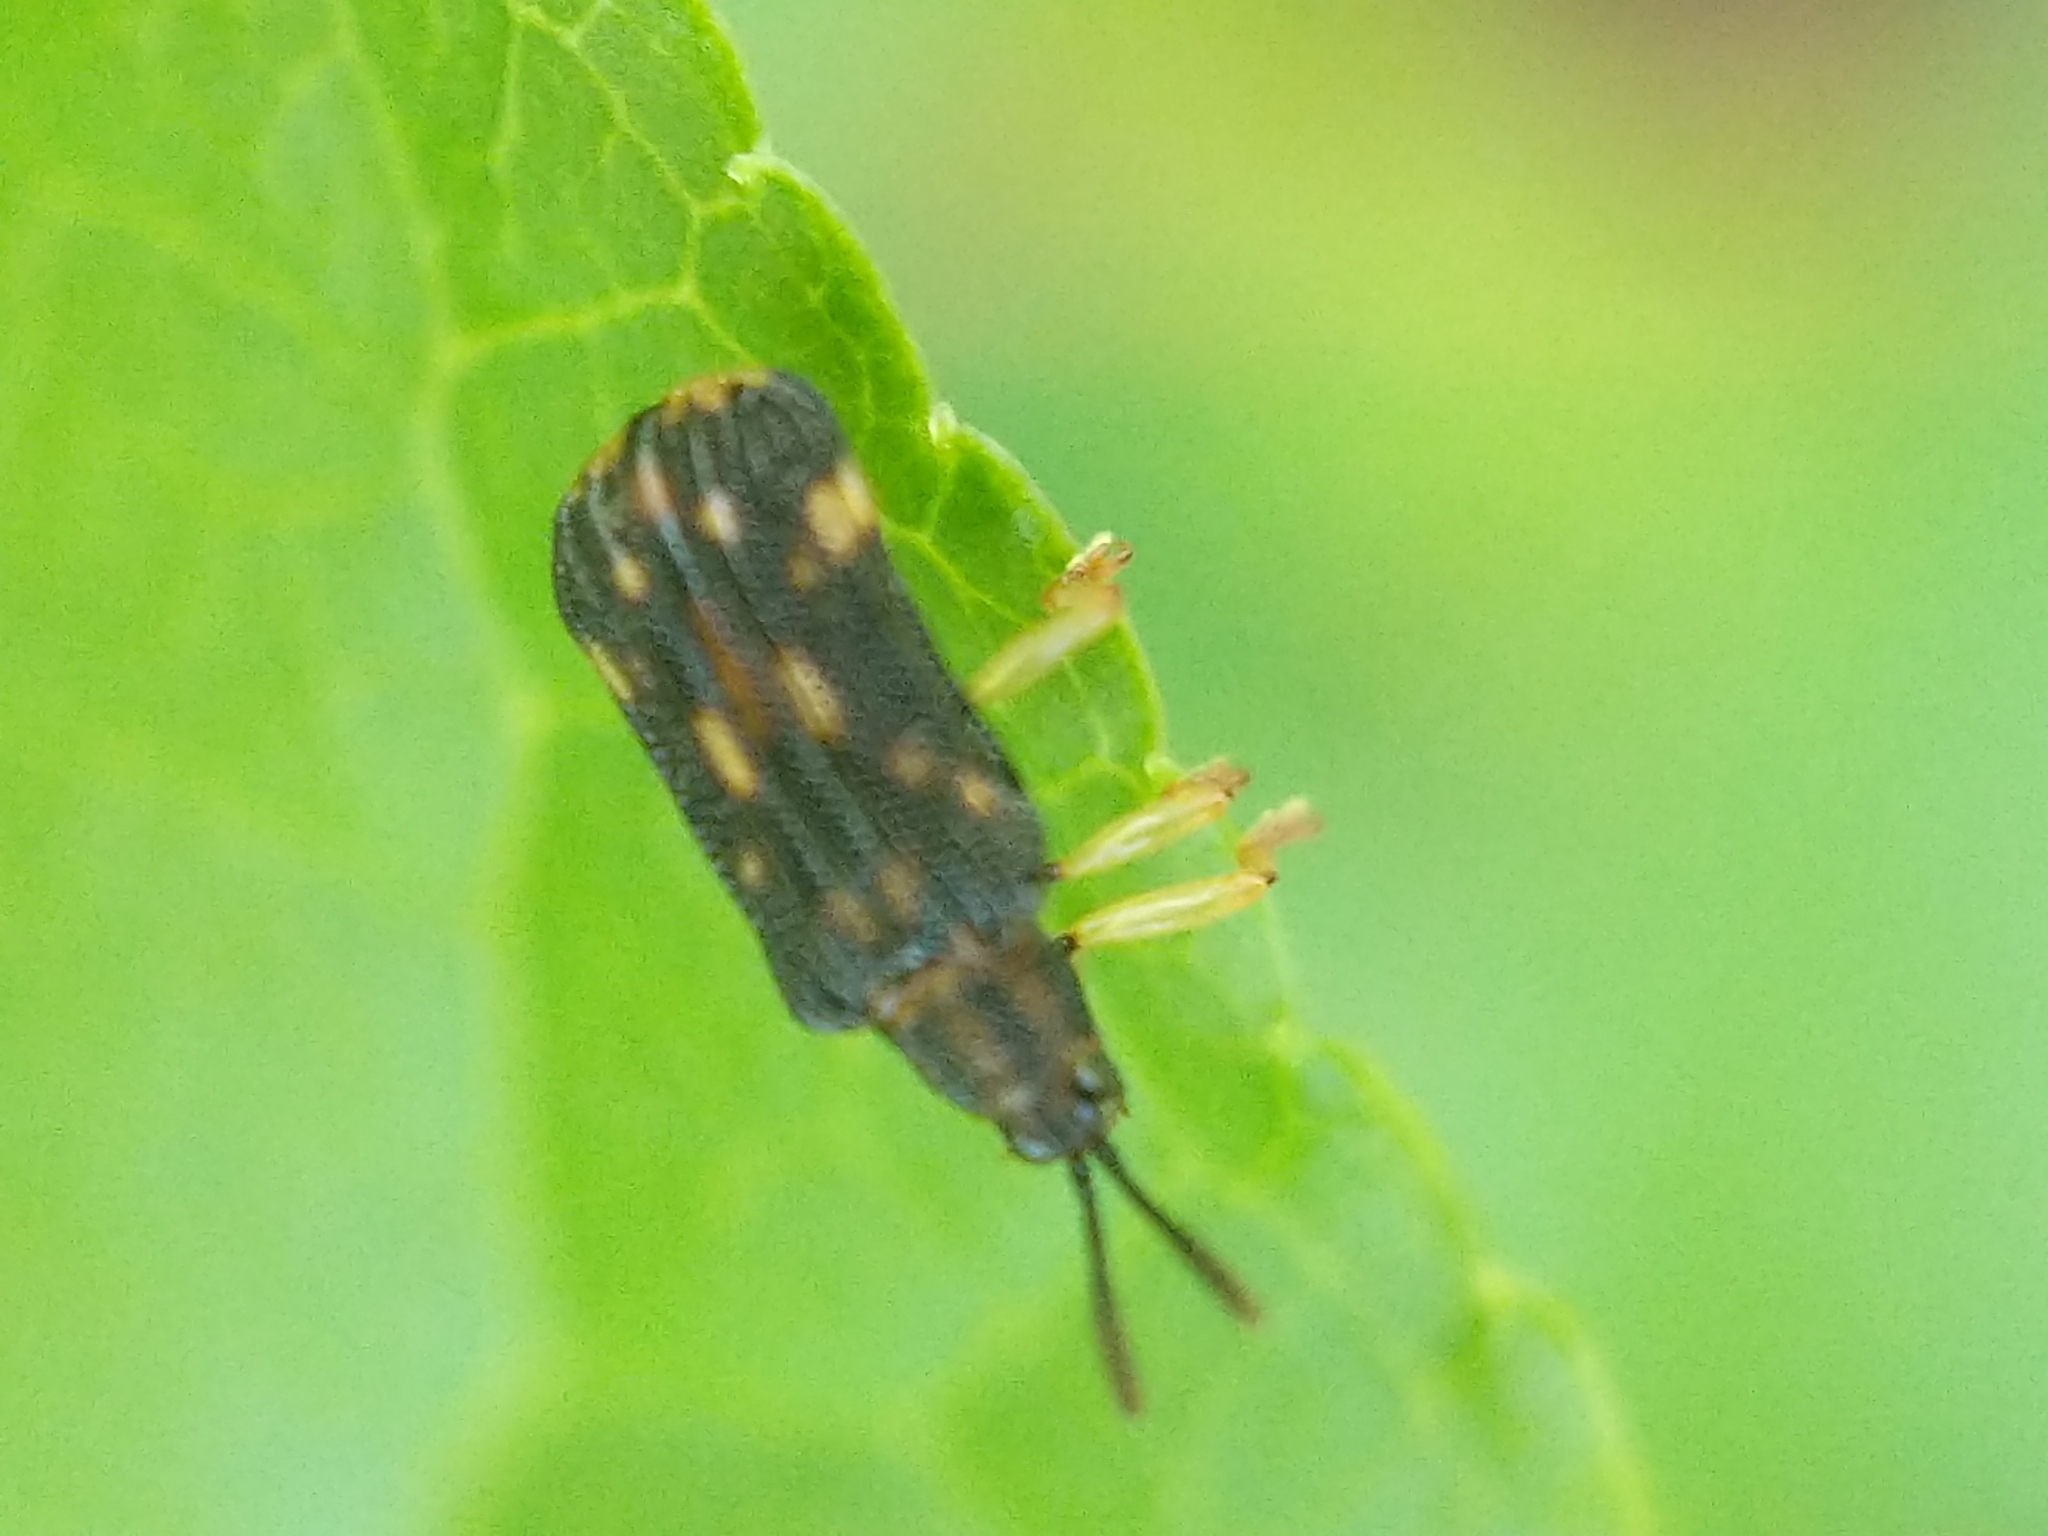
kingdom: Animalia
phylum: Arthropoda
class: Insecta
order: Coleoptera
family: Chrysomelidae
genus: Sumitrosis
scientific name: Sumitrosis inaequalis
